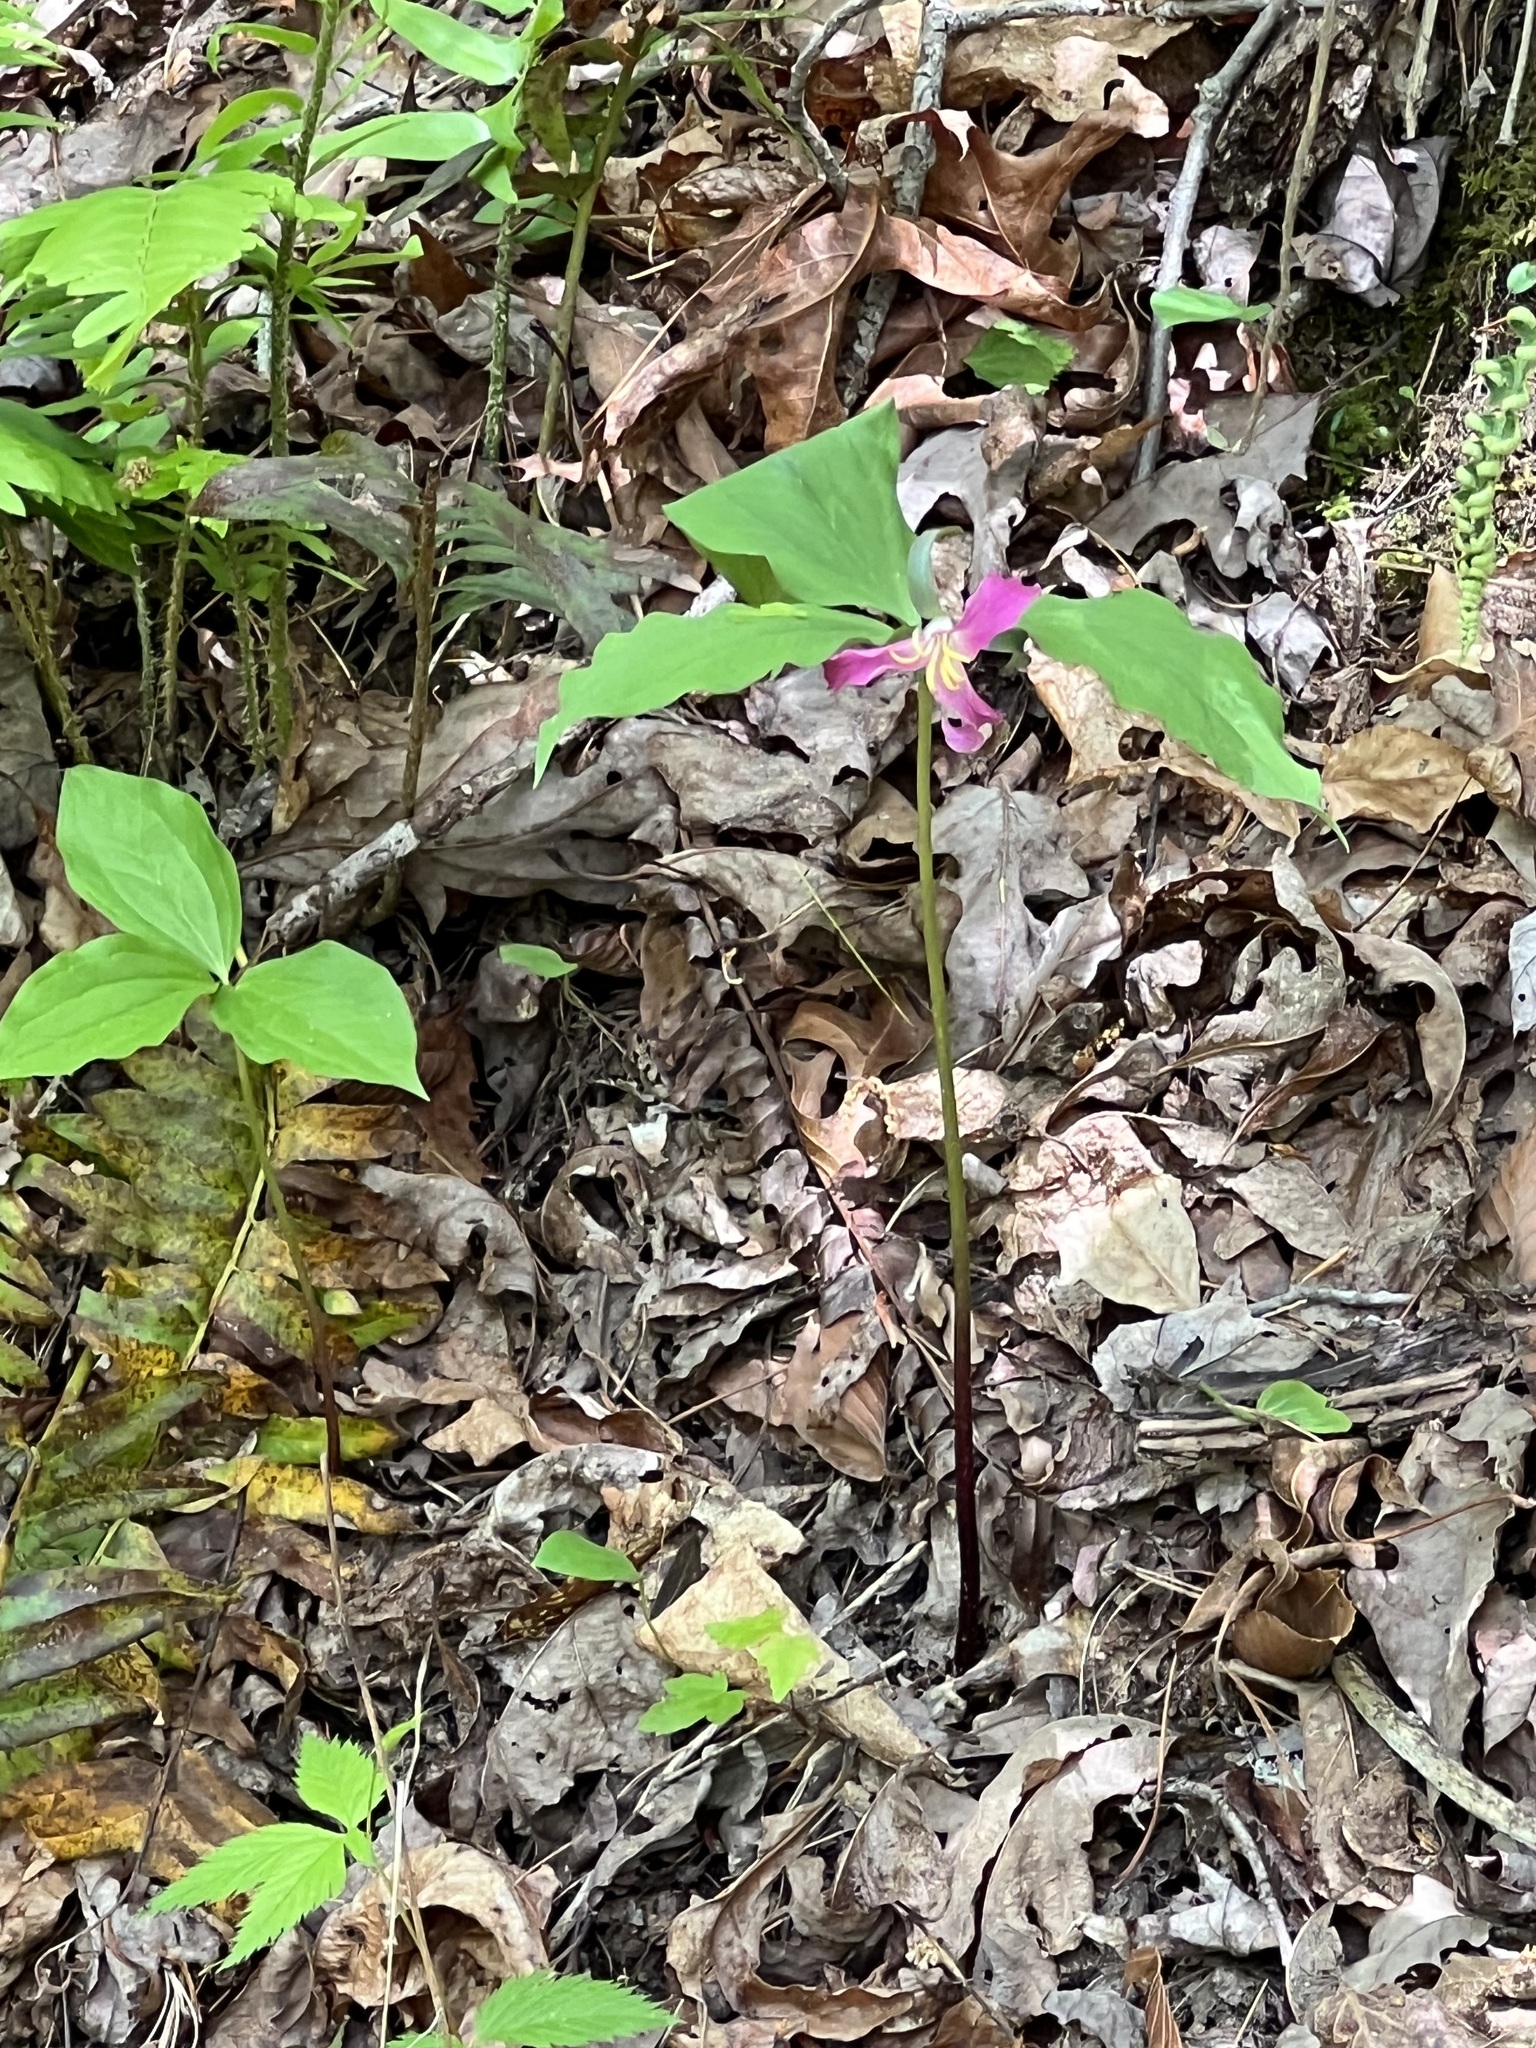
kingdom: Plantae
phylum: Tracheophyta
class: Liliopsida
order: Liliales
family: Melanthiaceae
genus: Trillium
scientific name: Trillium catesbaei
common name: Bashful trillium
